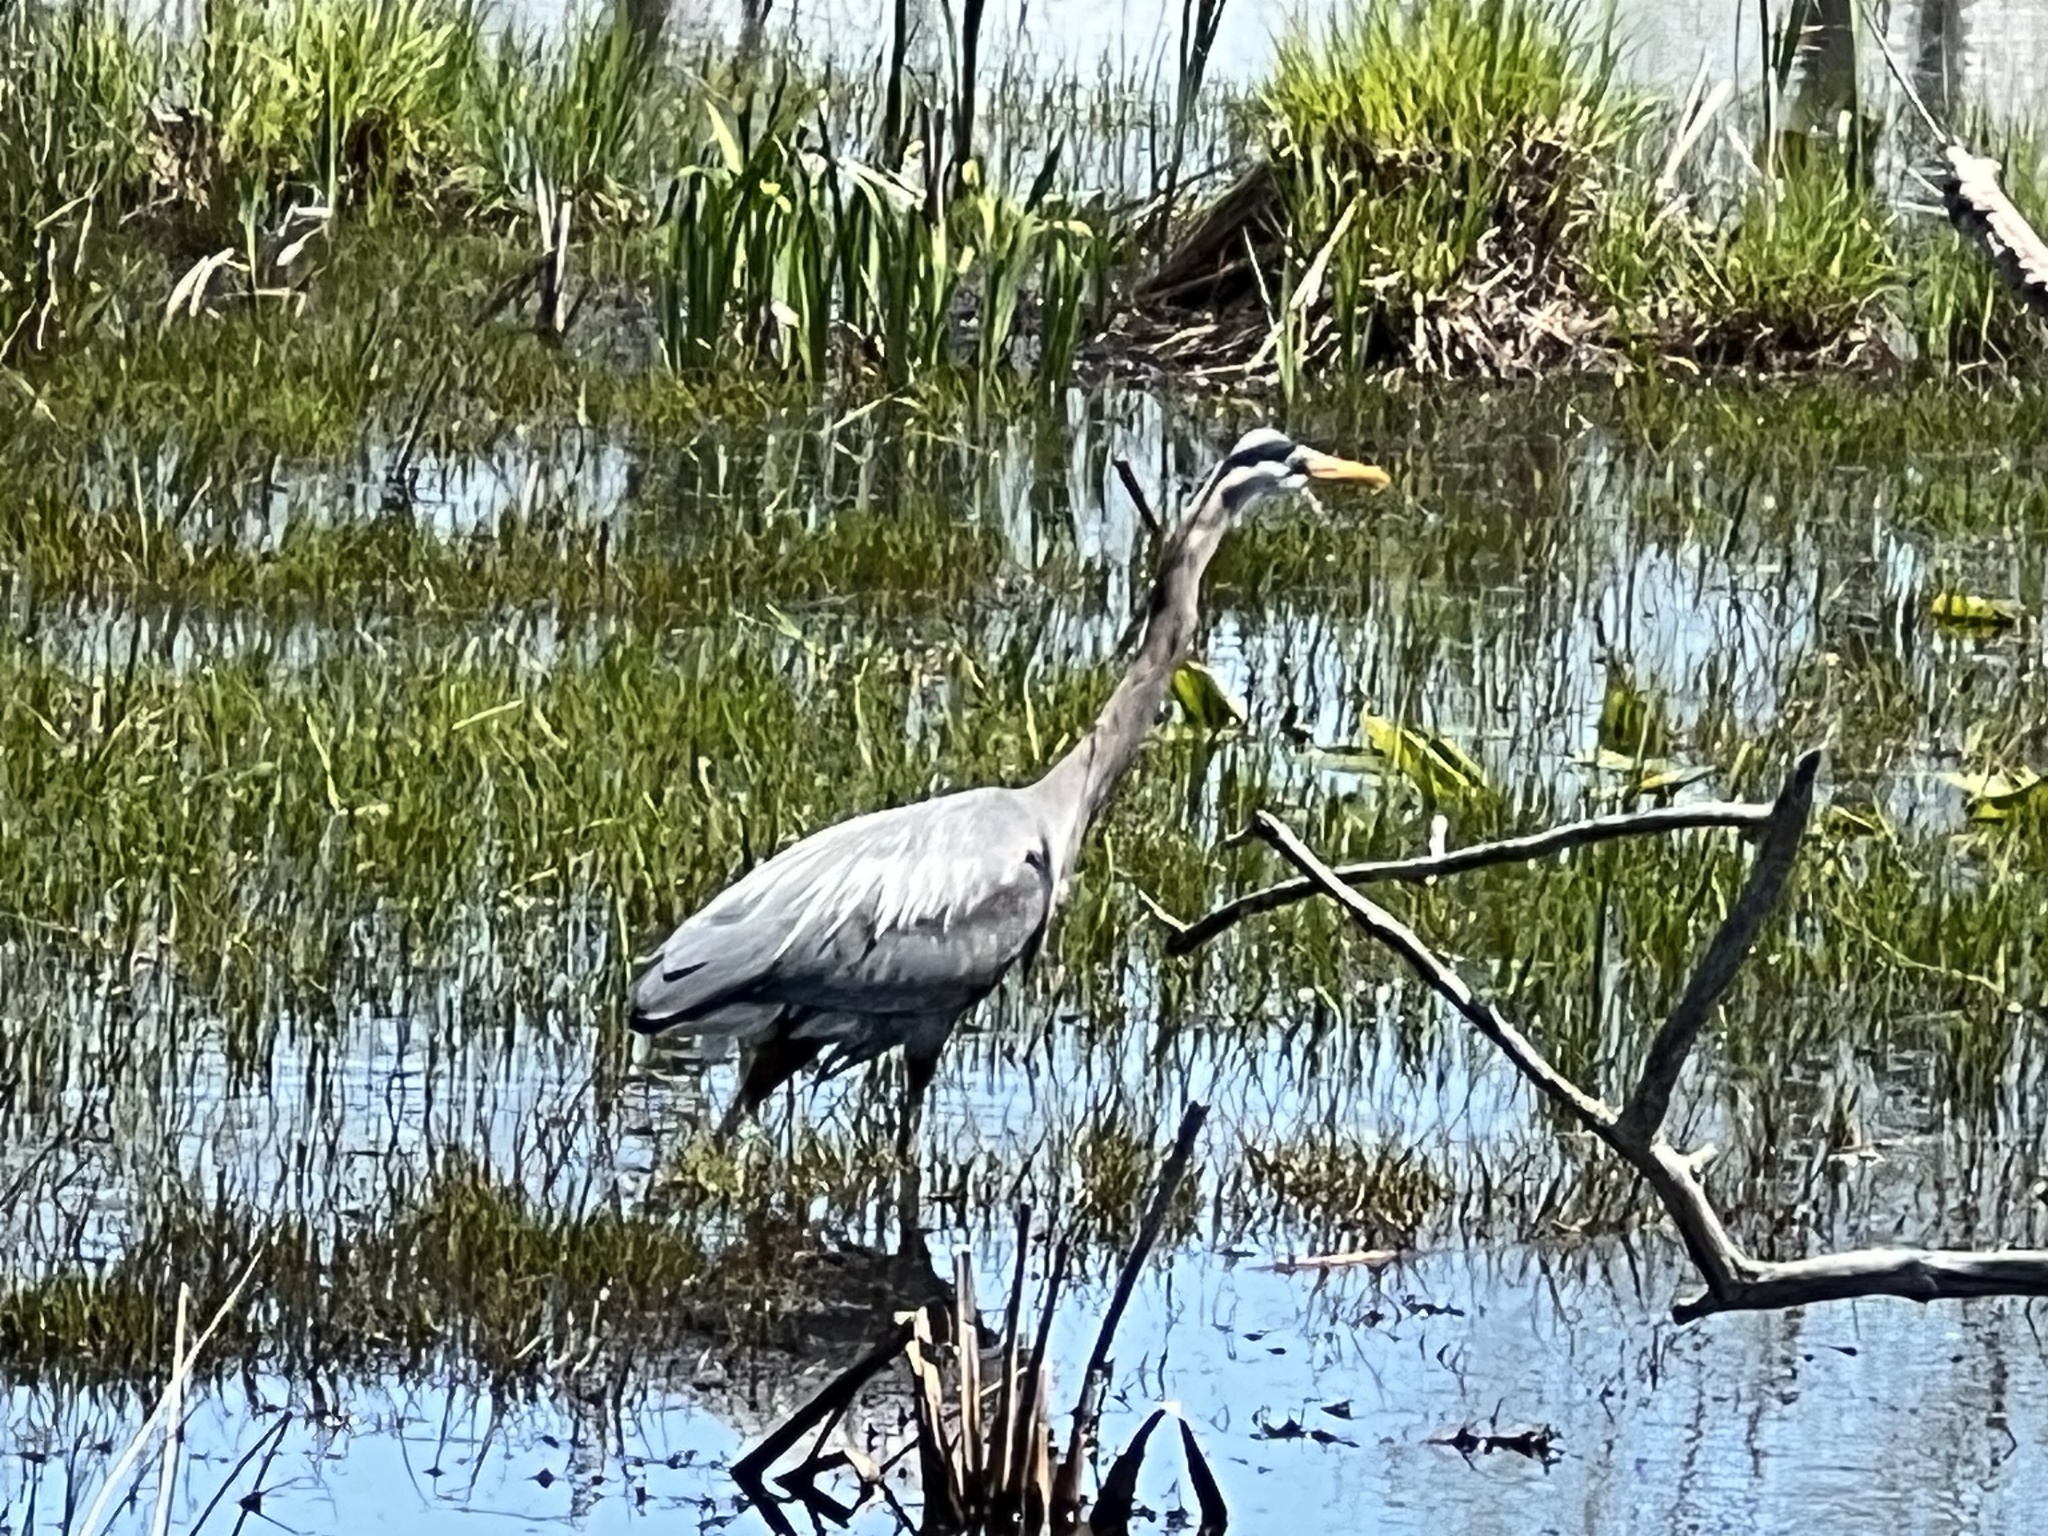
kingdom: Animalia
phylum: Chordata
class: Aves
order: Pelecaniformes
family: Ardeidae
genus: Ardea
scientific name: Ardea herodias
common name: Great blue heron
